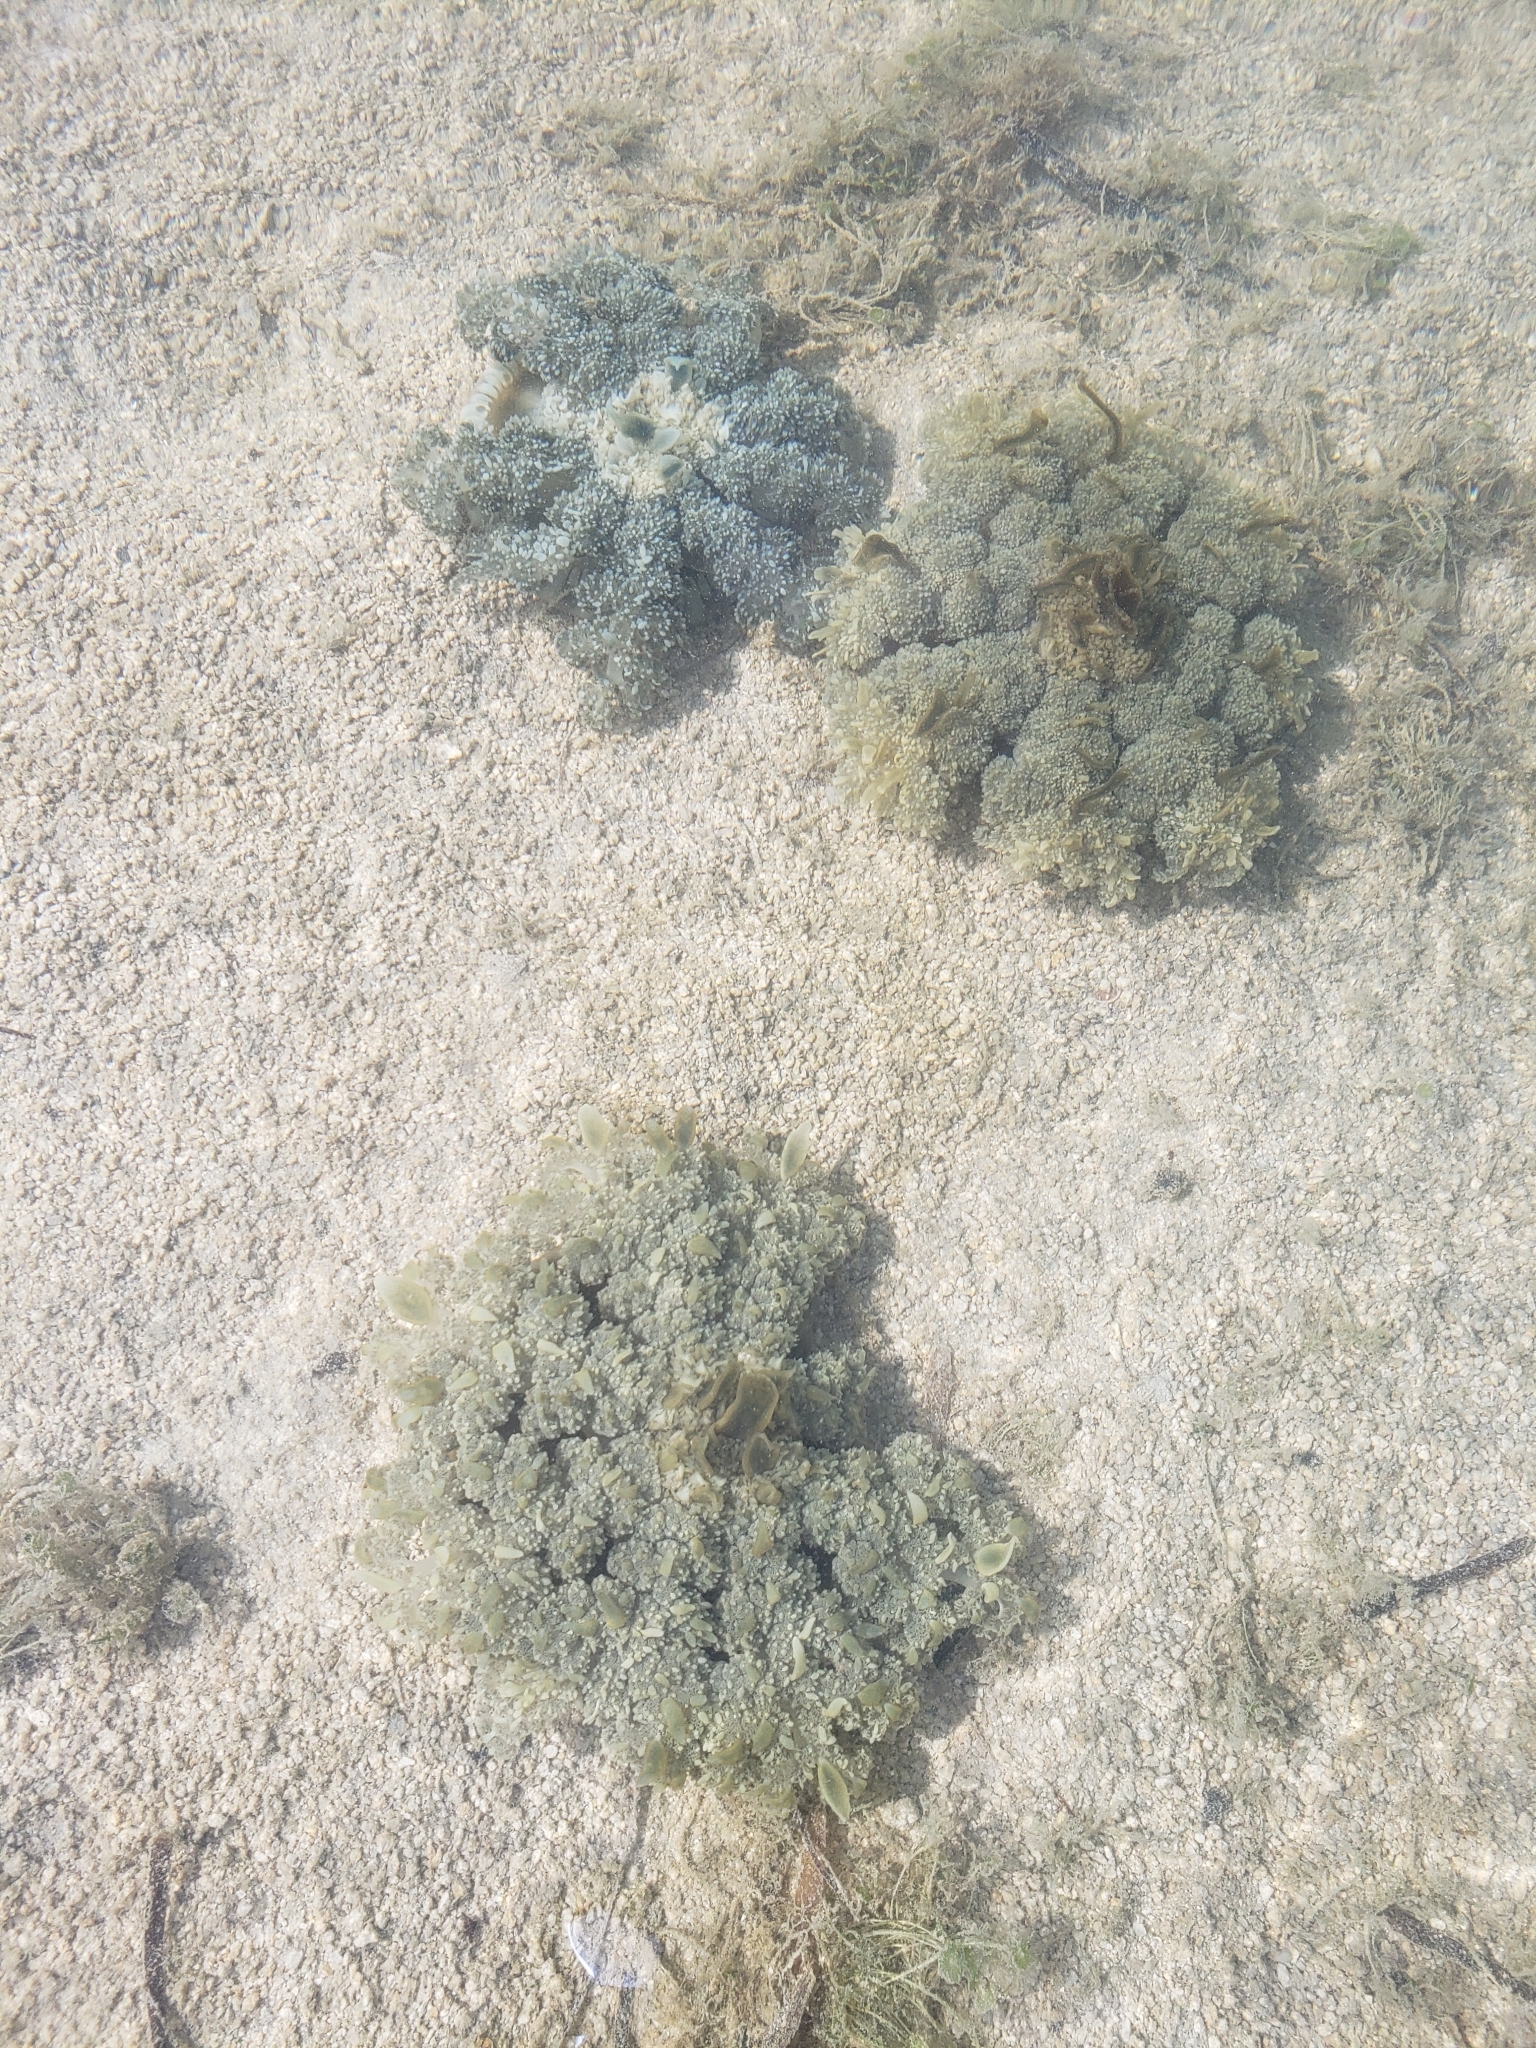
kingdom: Animalia
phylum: Cnidaria
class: Scyphozoa
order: Rhizostomeae
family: Cassiopeidae
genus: Cassiopea
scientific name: Cassiopea andromeda
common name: Upside-down jellyfish
